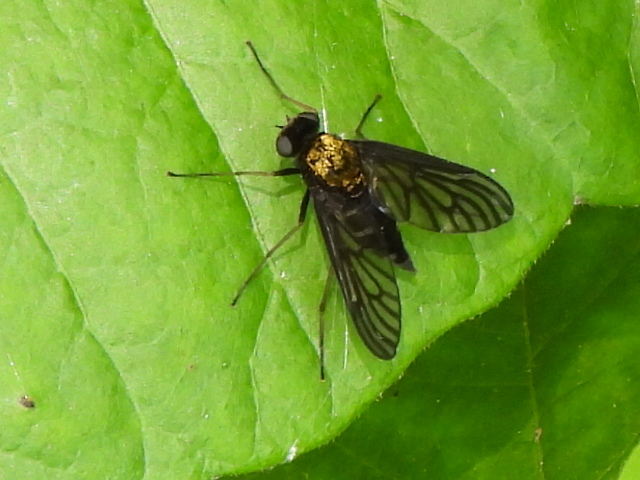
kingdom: Animalia
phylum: Arthropoda
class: Insecta
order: Diptera
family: Rhagionidae
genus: Chrysopilus
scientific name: Chrysopilus thoracicus
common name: Golden-backed snipe fly
